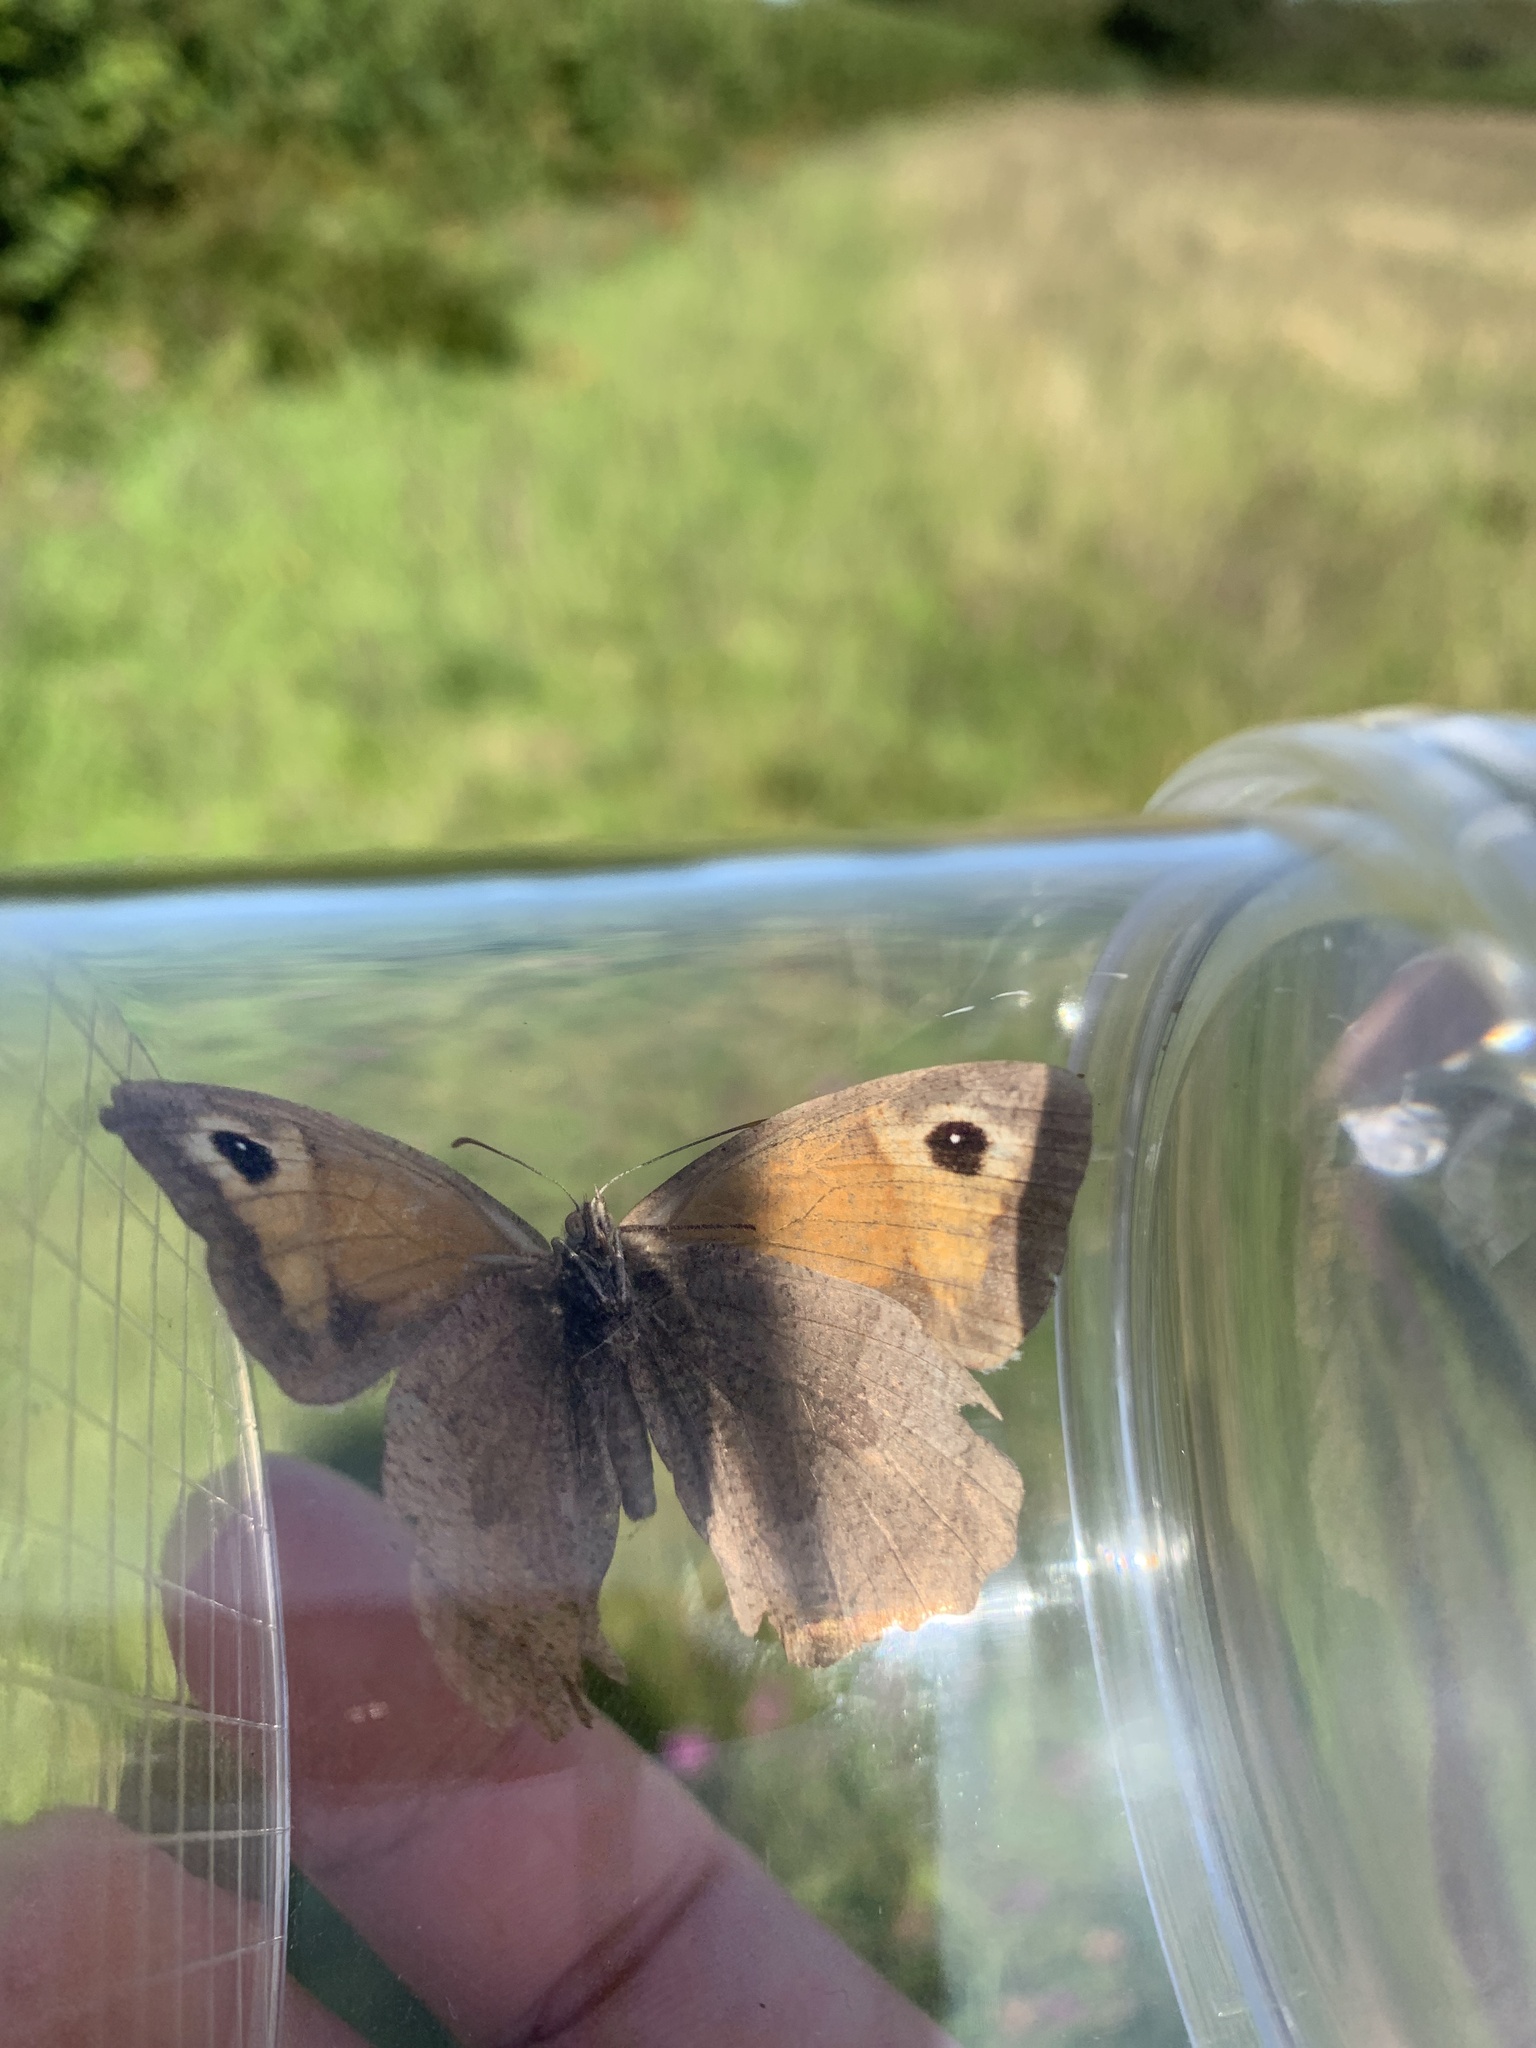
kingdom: Animalia
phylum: Arthropoda
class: Insecta
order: Lepidoptera
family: Nymphalidae
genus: Pyronia
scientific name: Pyronia tithonus
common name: Gatekeeper
